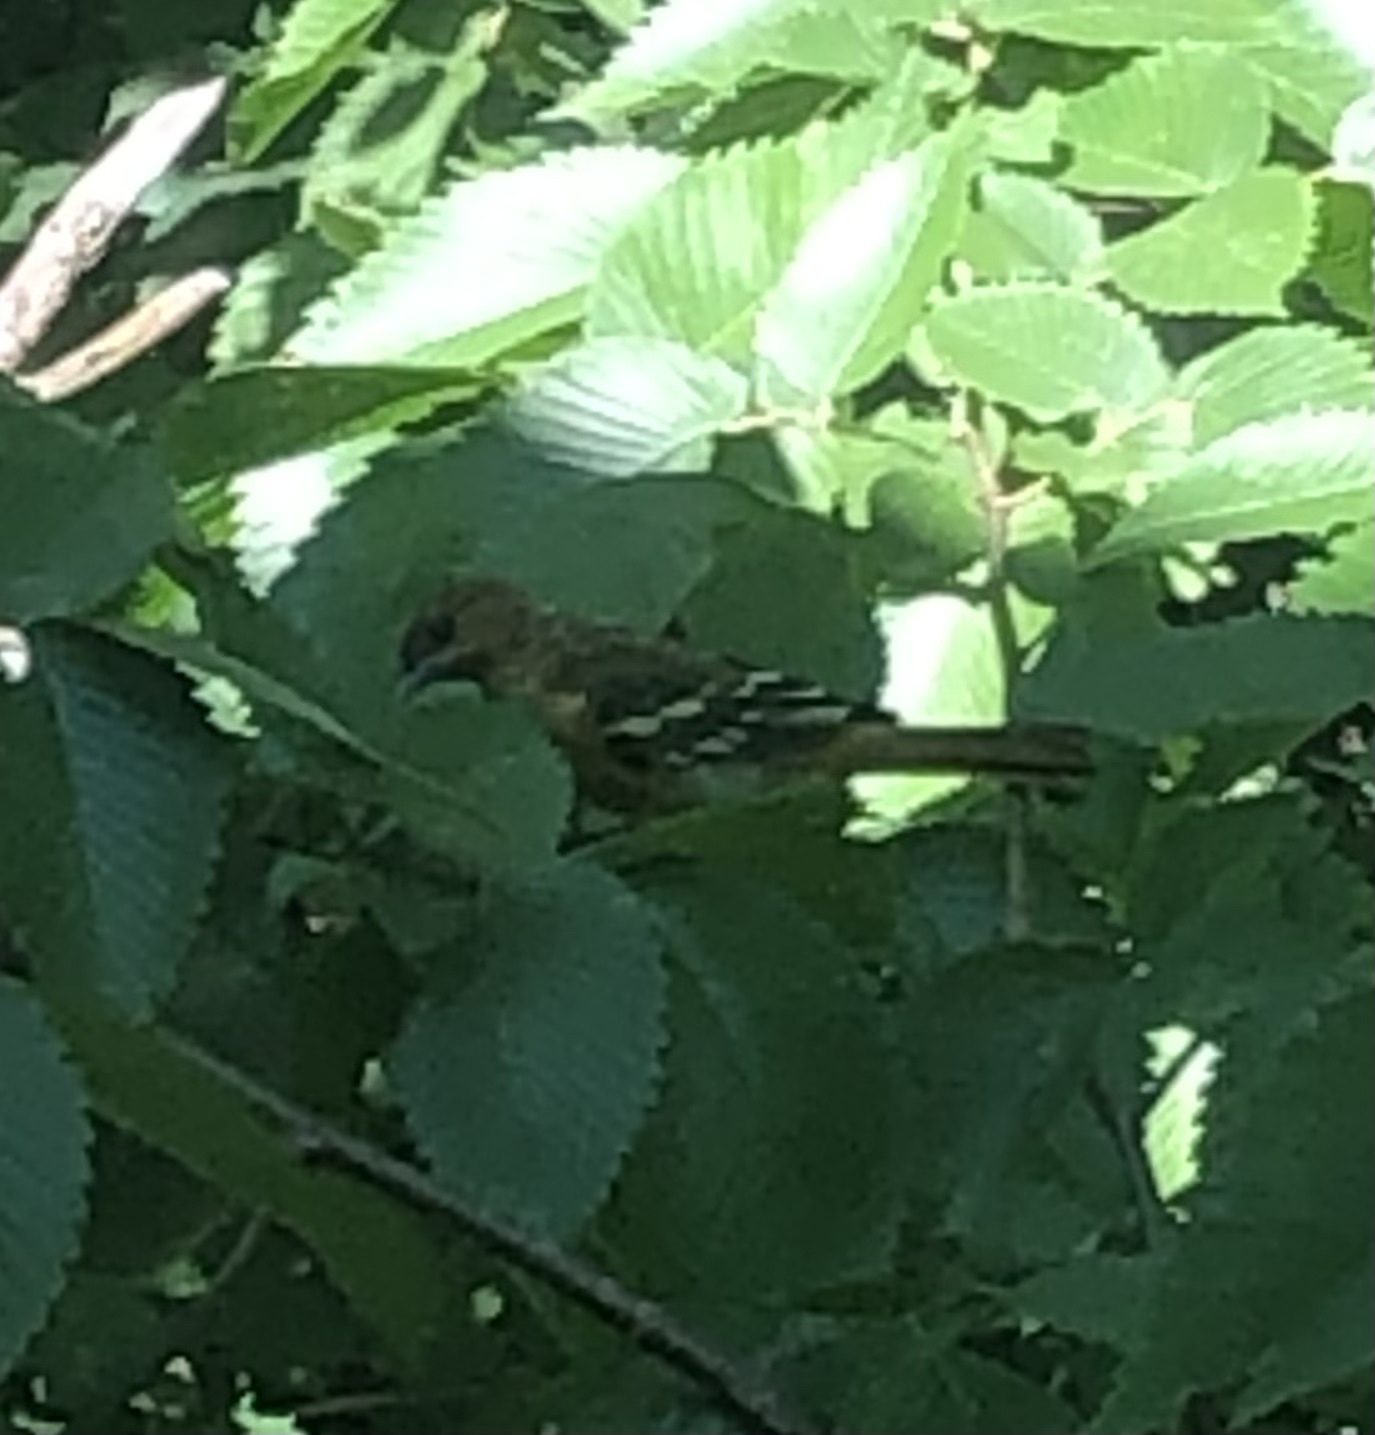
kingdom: Animalia
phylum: Chordata
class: Aves
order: Passeriformes
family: Icteridae
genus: Icterus
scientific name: Icterus galbula
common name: Baltimore oriole
